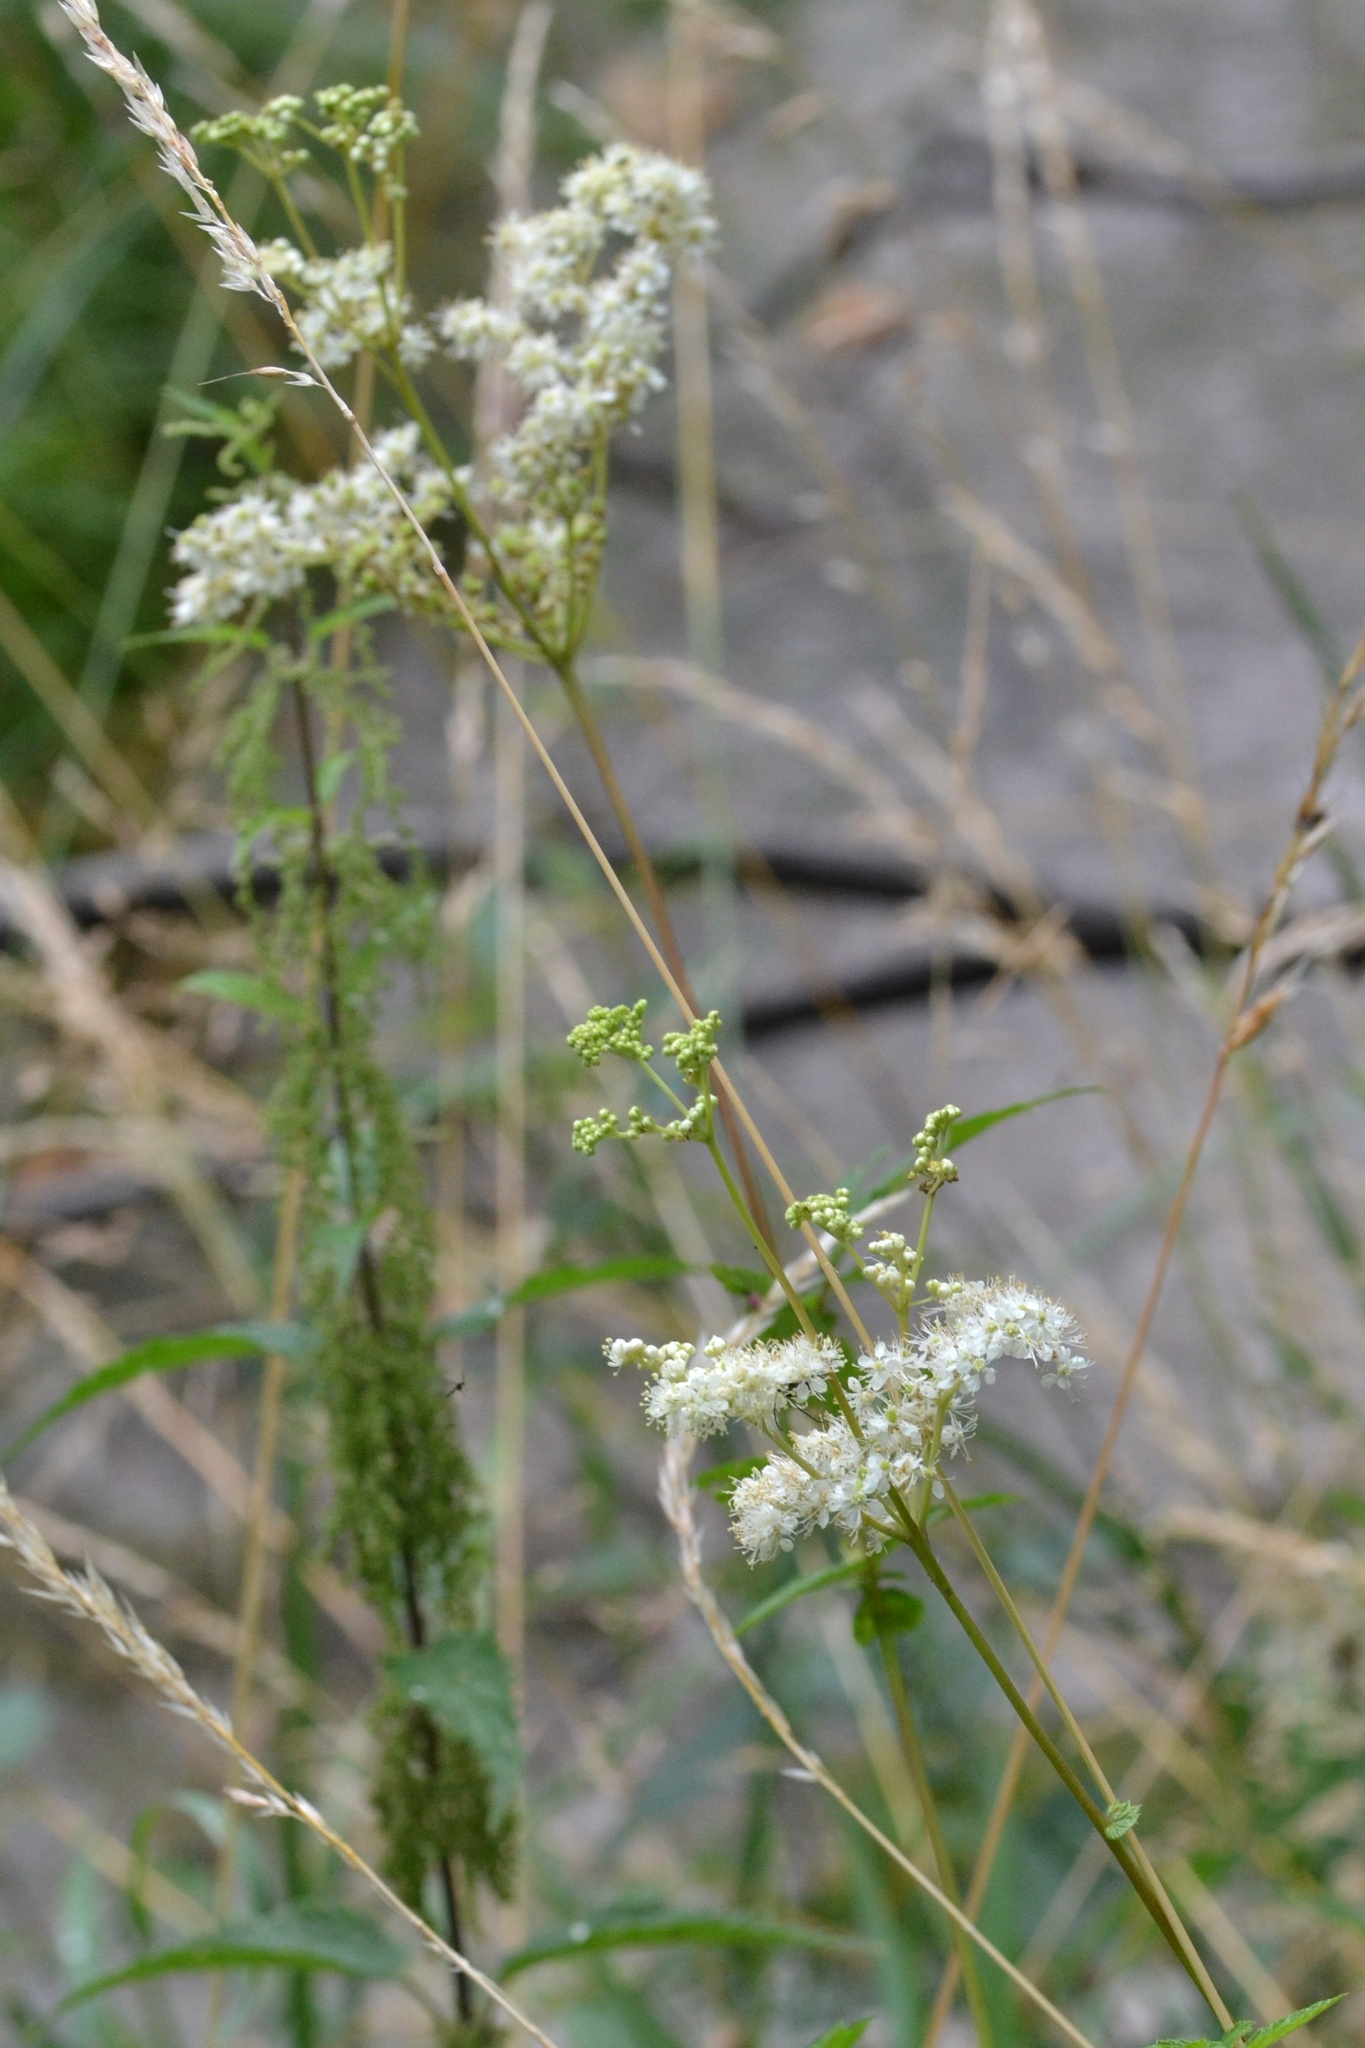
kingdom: Plantae
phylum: Tracheophyta
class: Magnoliopsida
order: Rosales
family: Rosaceae
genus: Filipendula
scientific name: Filipendula ulmaria
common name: Meadowsweet
